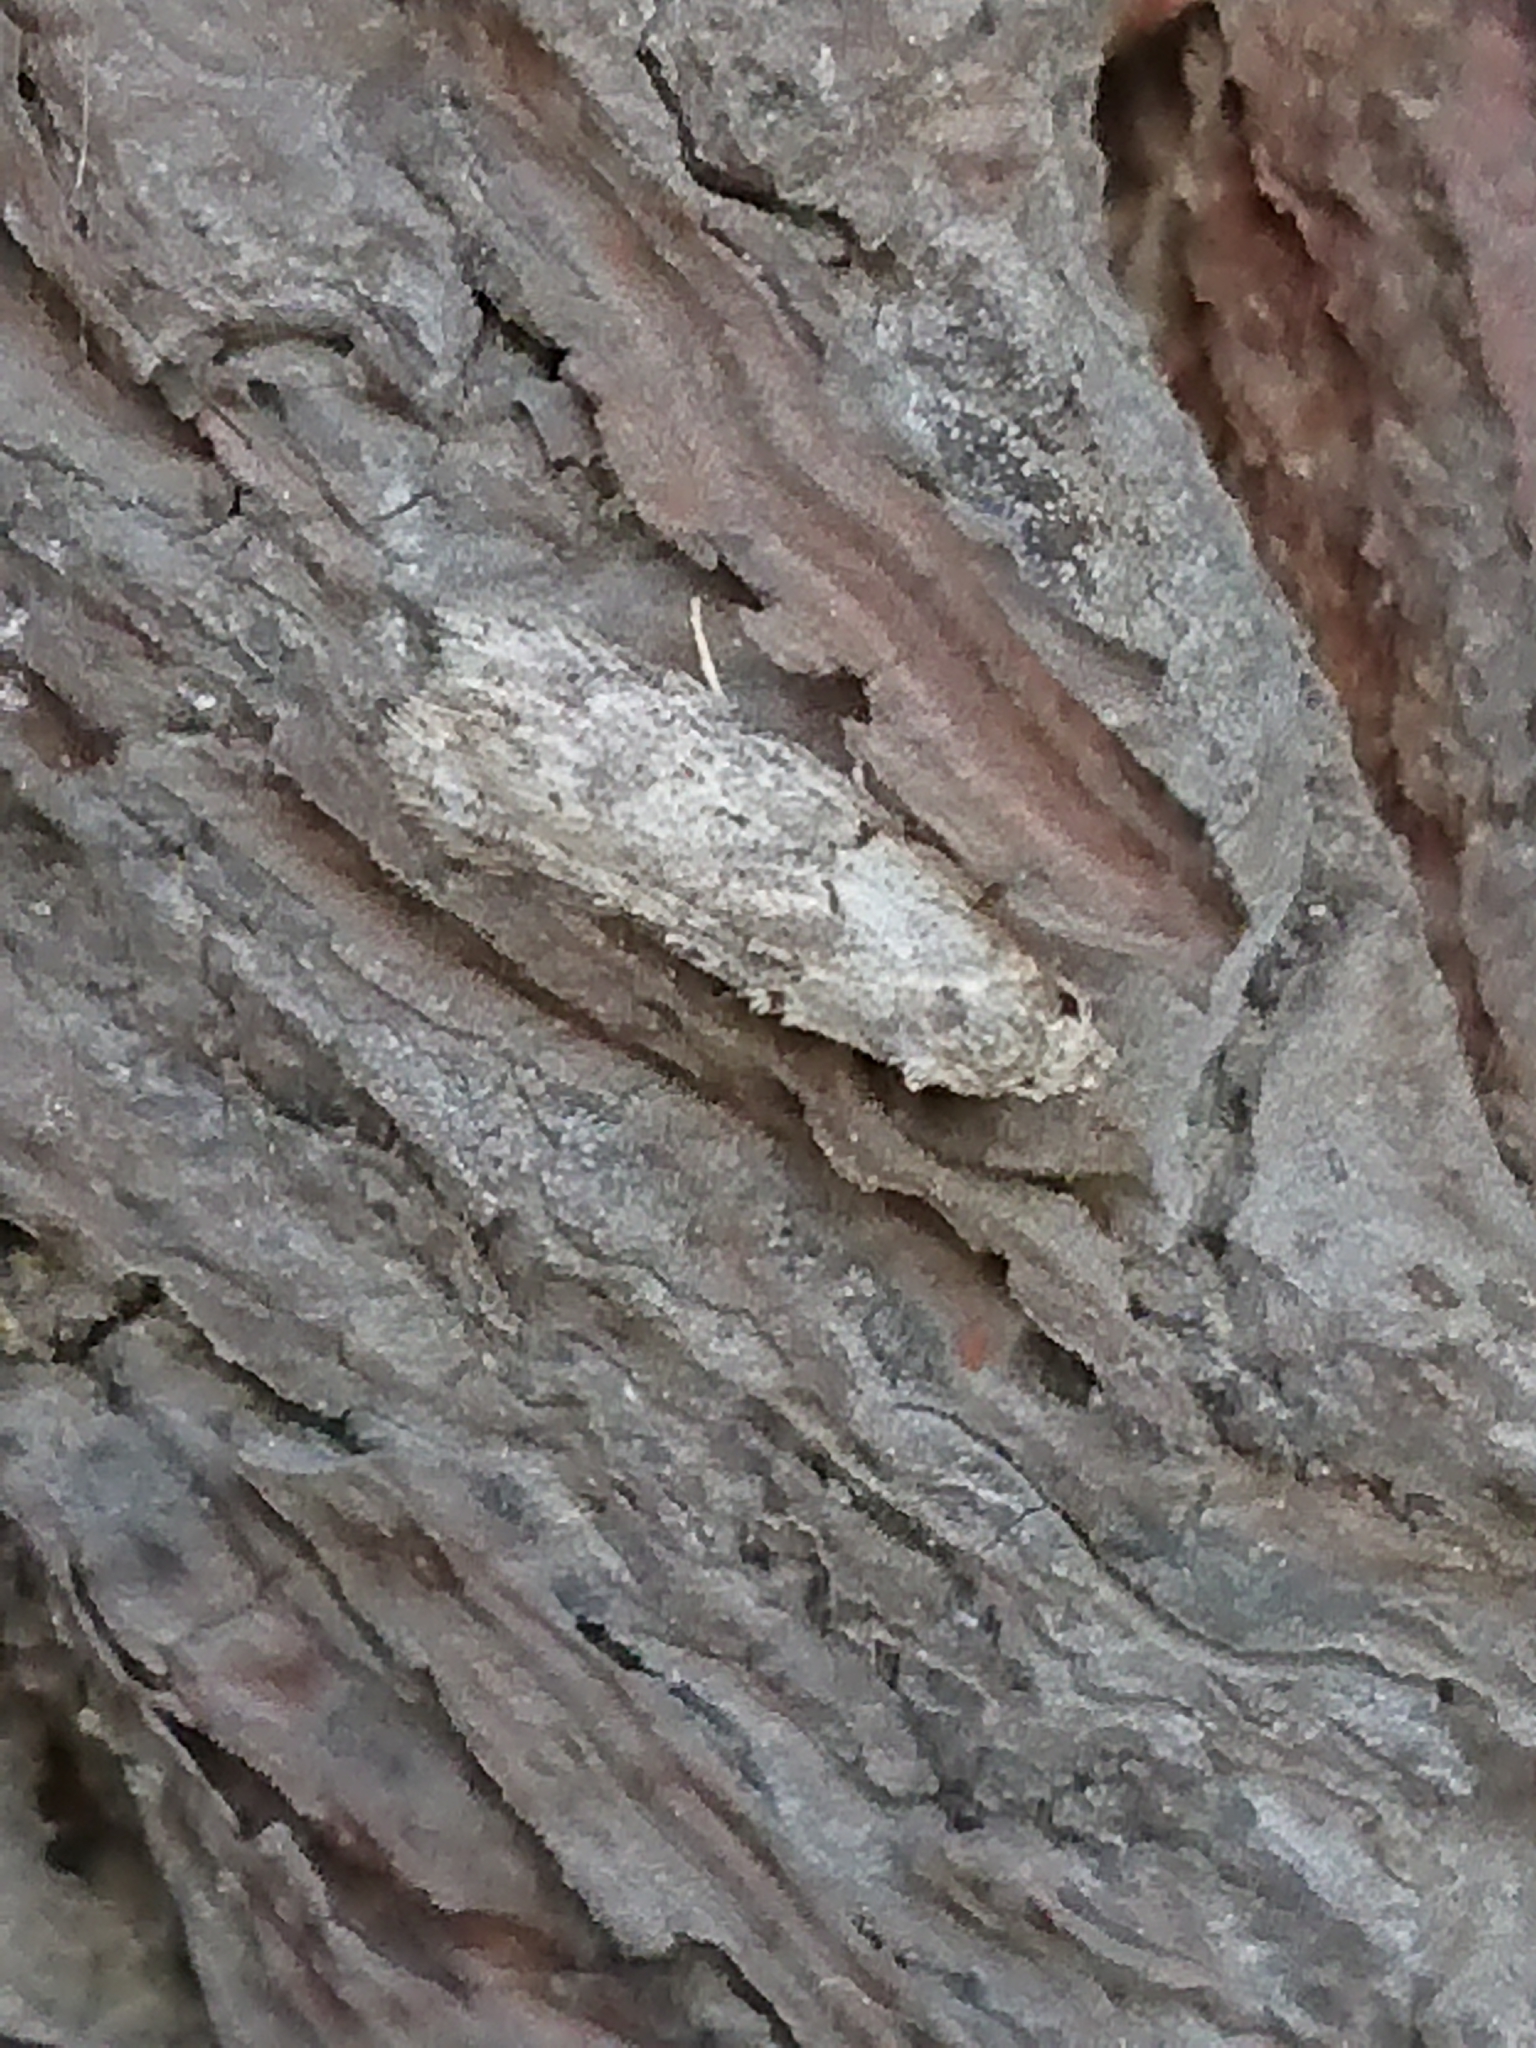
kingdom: Animalia
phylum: Arthropoda
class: Insecta
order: Lepidoptera
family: Oecophoridae
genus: Izatha
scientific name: Izatha convulsella
